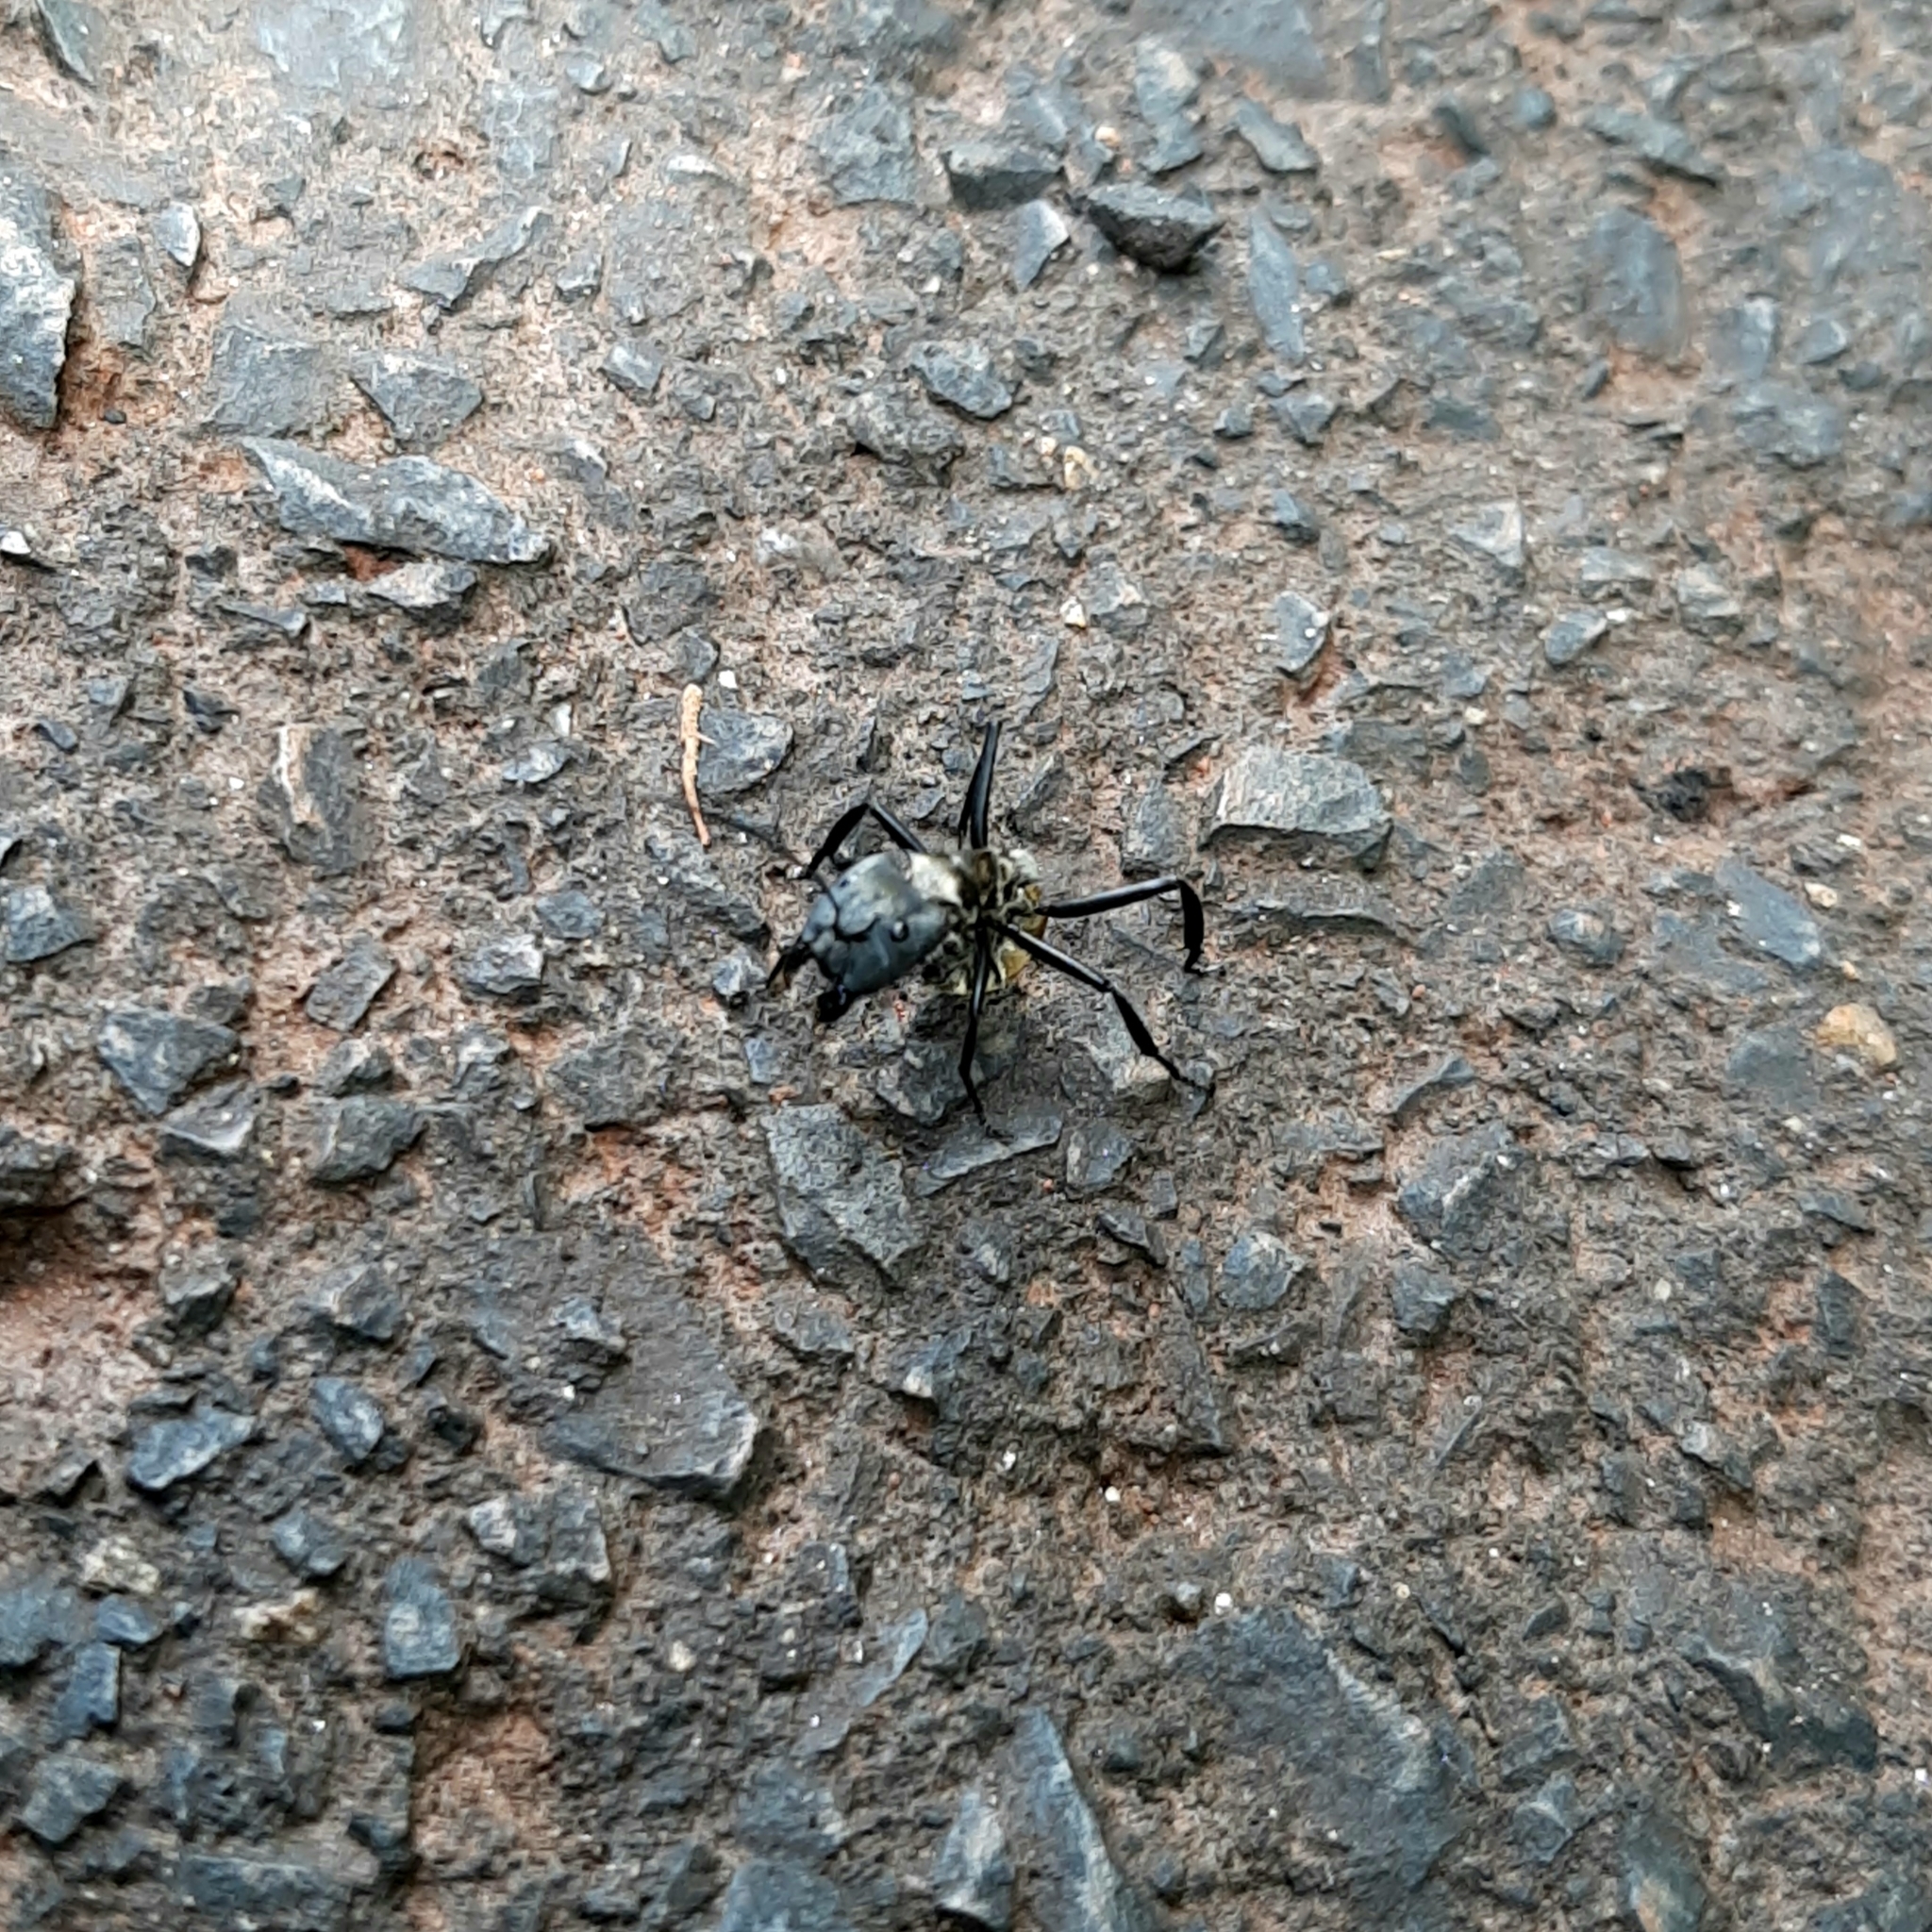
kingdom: Animalia
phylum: Arthropoda
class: Insecta
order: Hymenoptera
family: Formicidae
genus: Camponotus
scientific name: Camponotus sericeiventris
